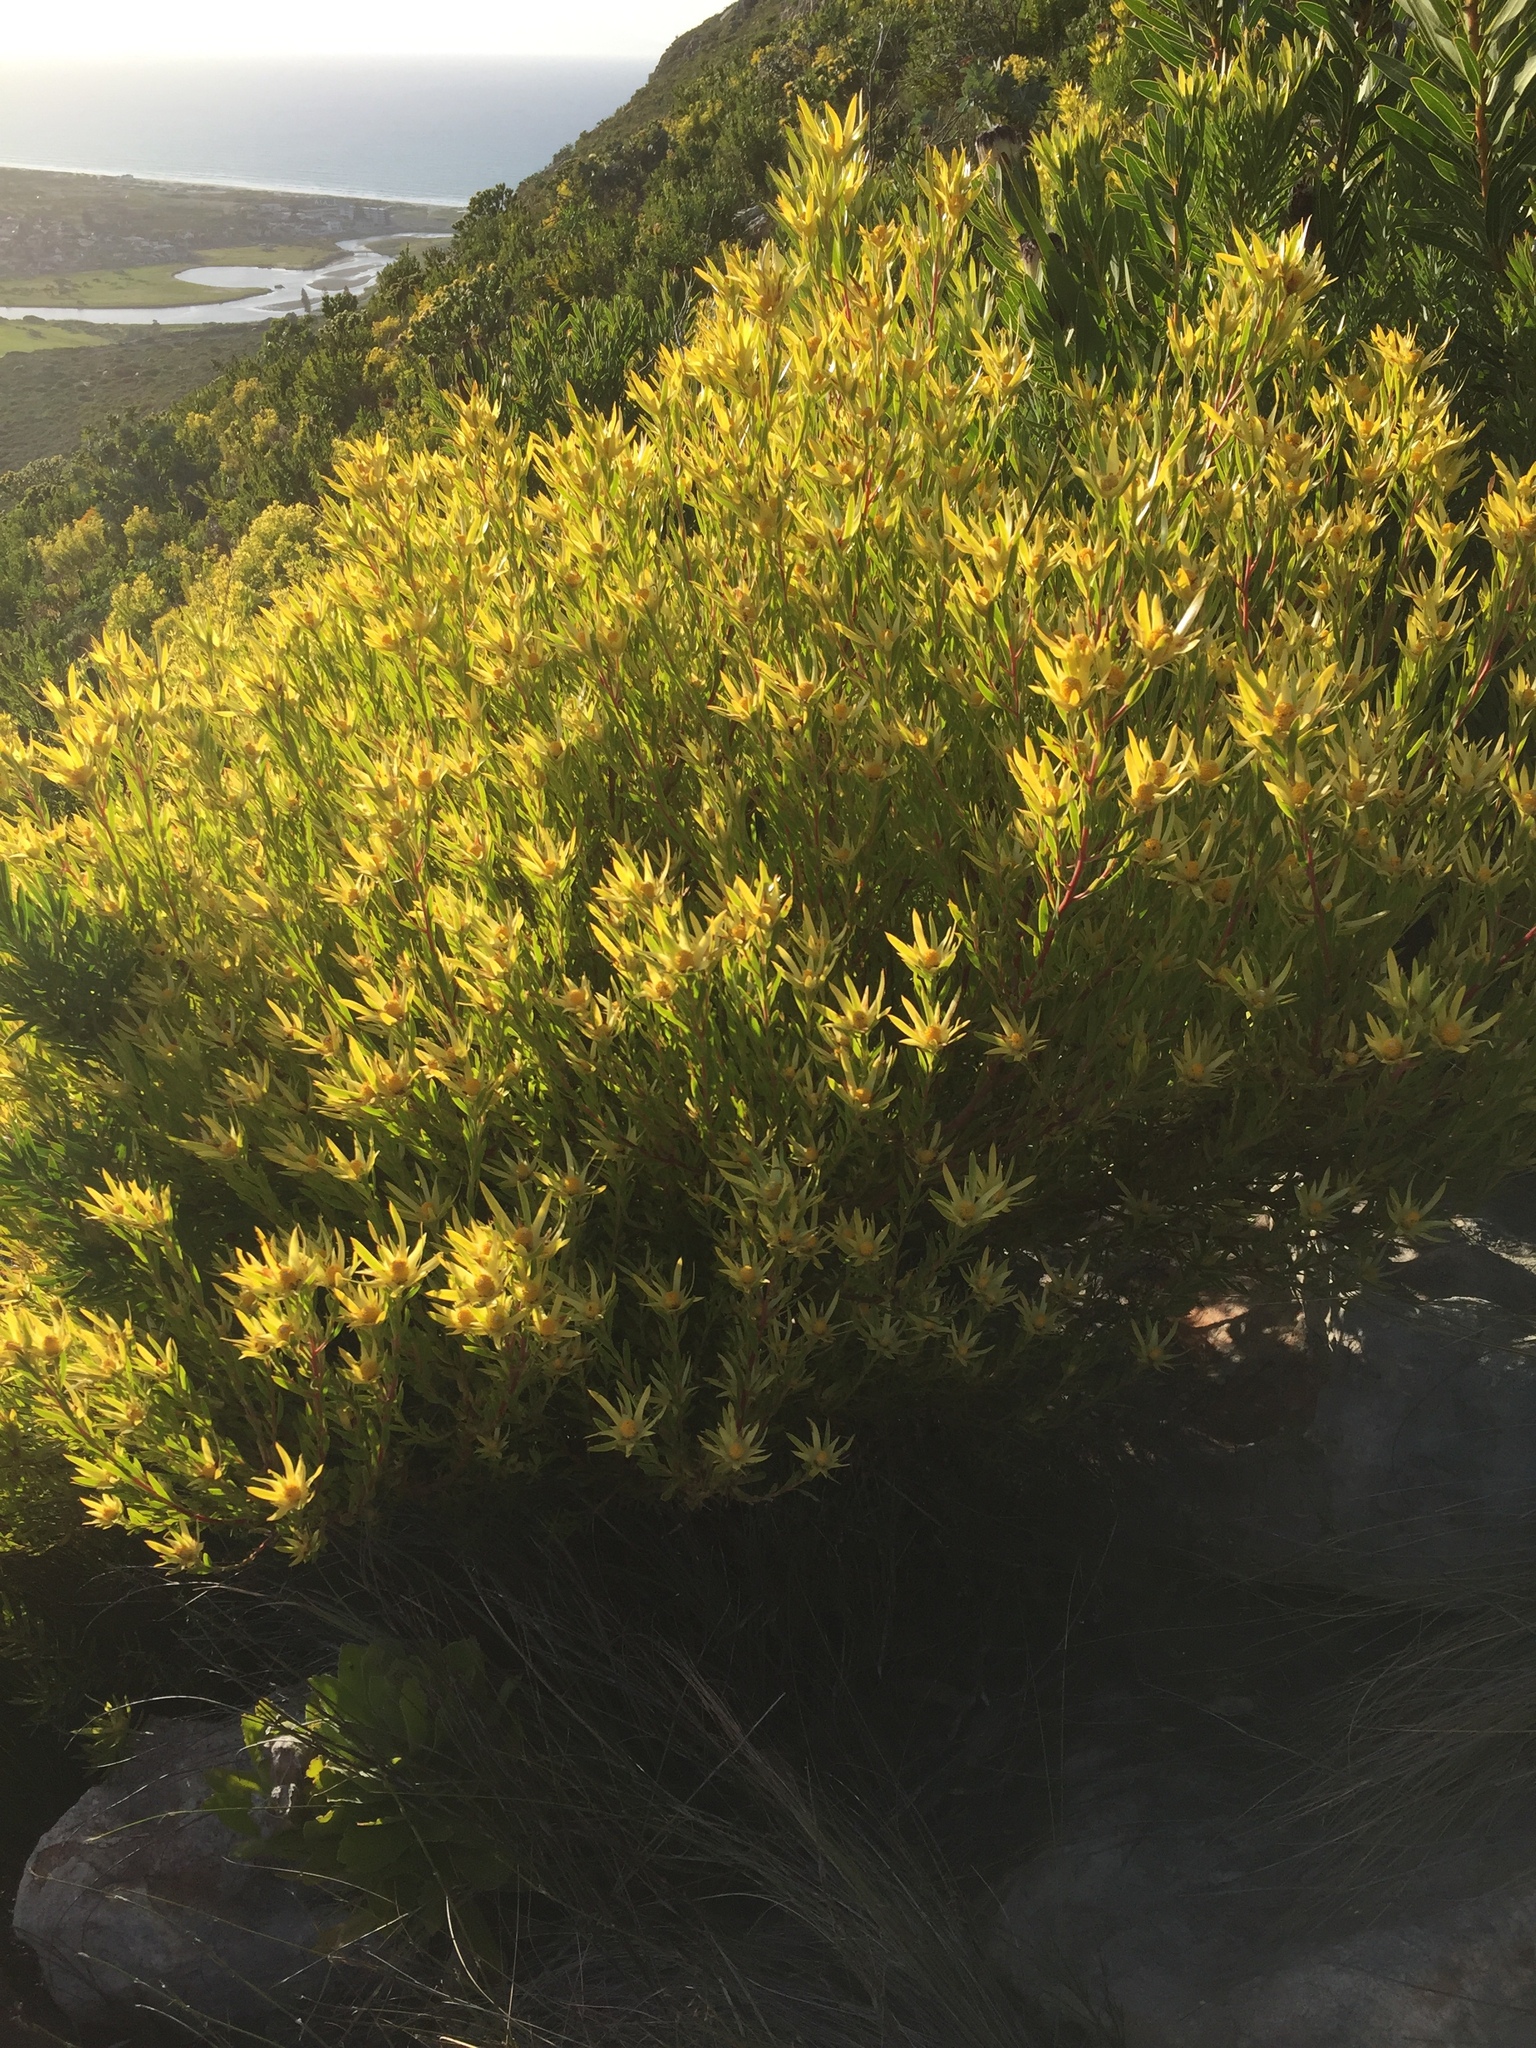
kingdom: Plantae
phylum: Tracheophyta
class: Magnoliopsida
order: Proteales
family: Proteaceae
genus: Leucadendron
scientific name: Leucadendron xanthoconus
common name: Sickle-leaf conebush
